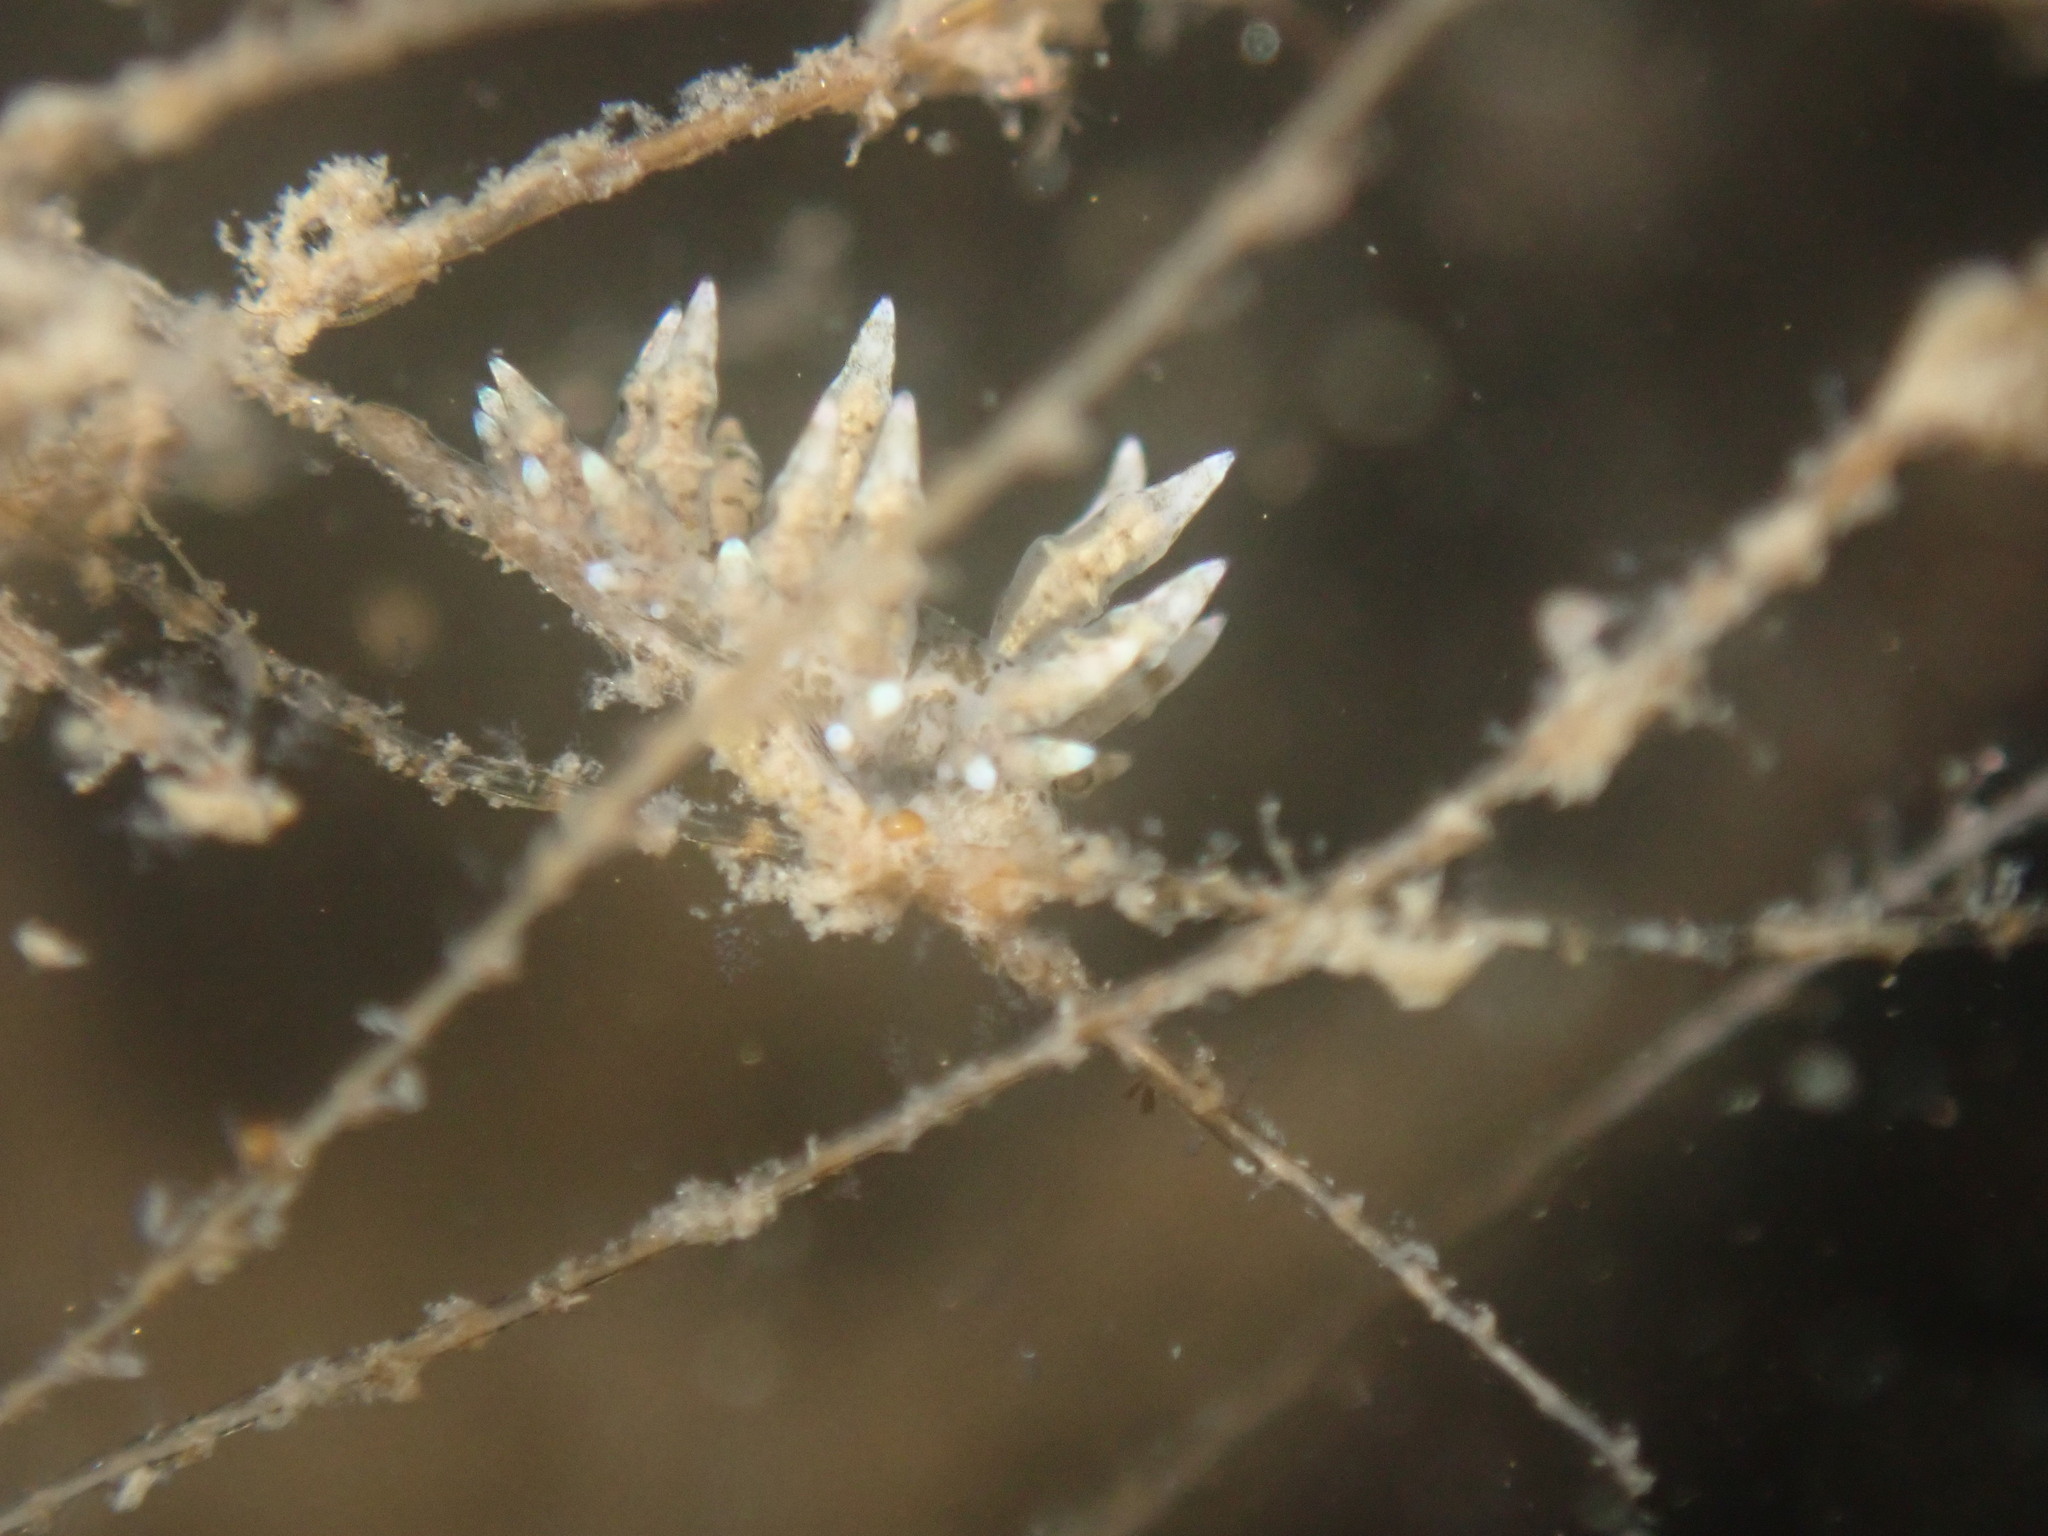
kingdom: Animalia
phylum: Mollusca
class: Gastropoda
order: Nudibranchia
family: Eubranchidae
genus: Eubranchus
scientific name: Eubranchus rustyus
